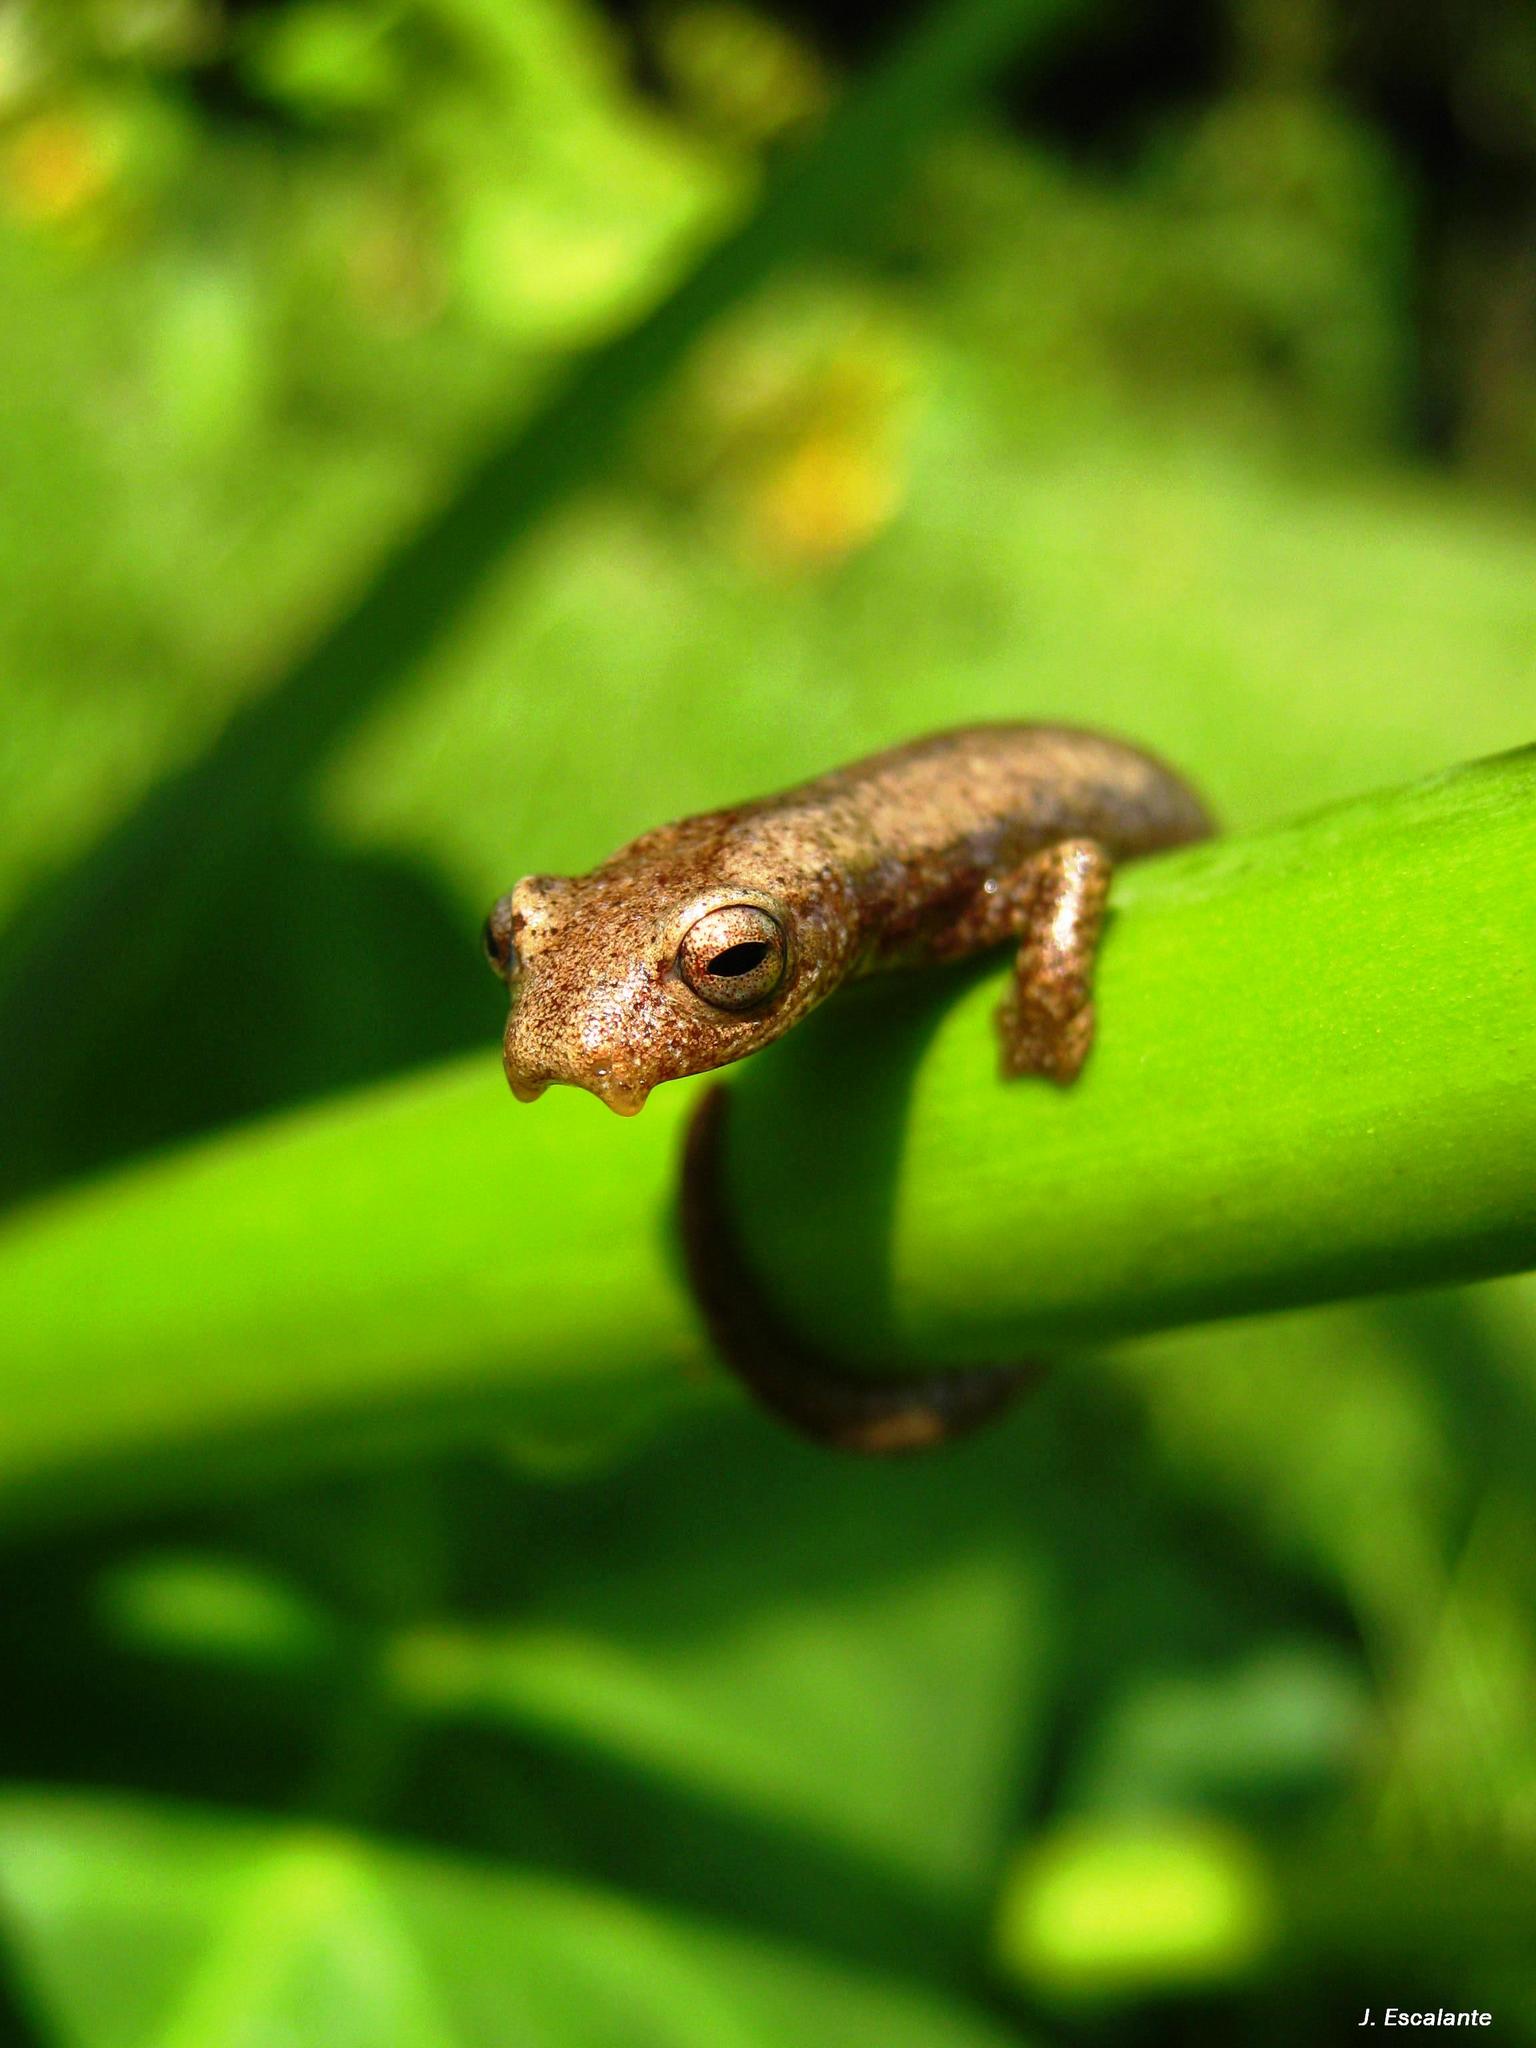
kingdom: Animalia
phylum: Chordata
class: Amphibia
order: Caudata
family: Plethodontidae
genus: Bolitoglossa
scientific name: Bolitoglossa rufescens
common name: Common dwarf salamander
